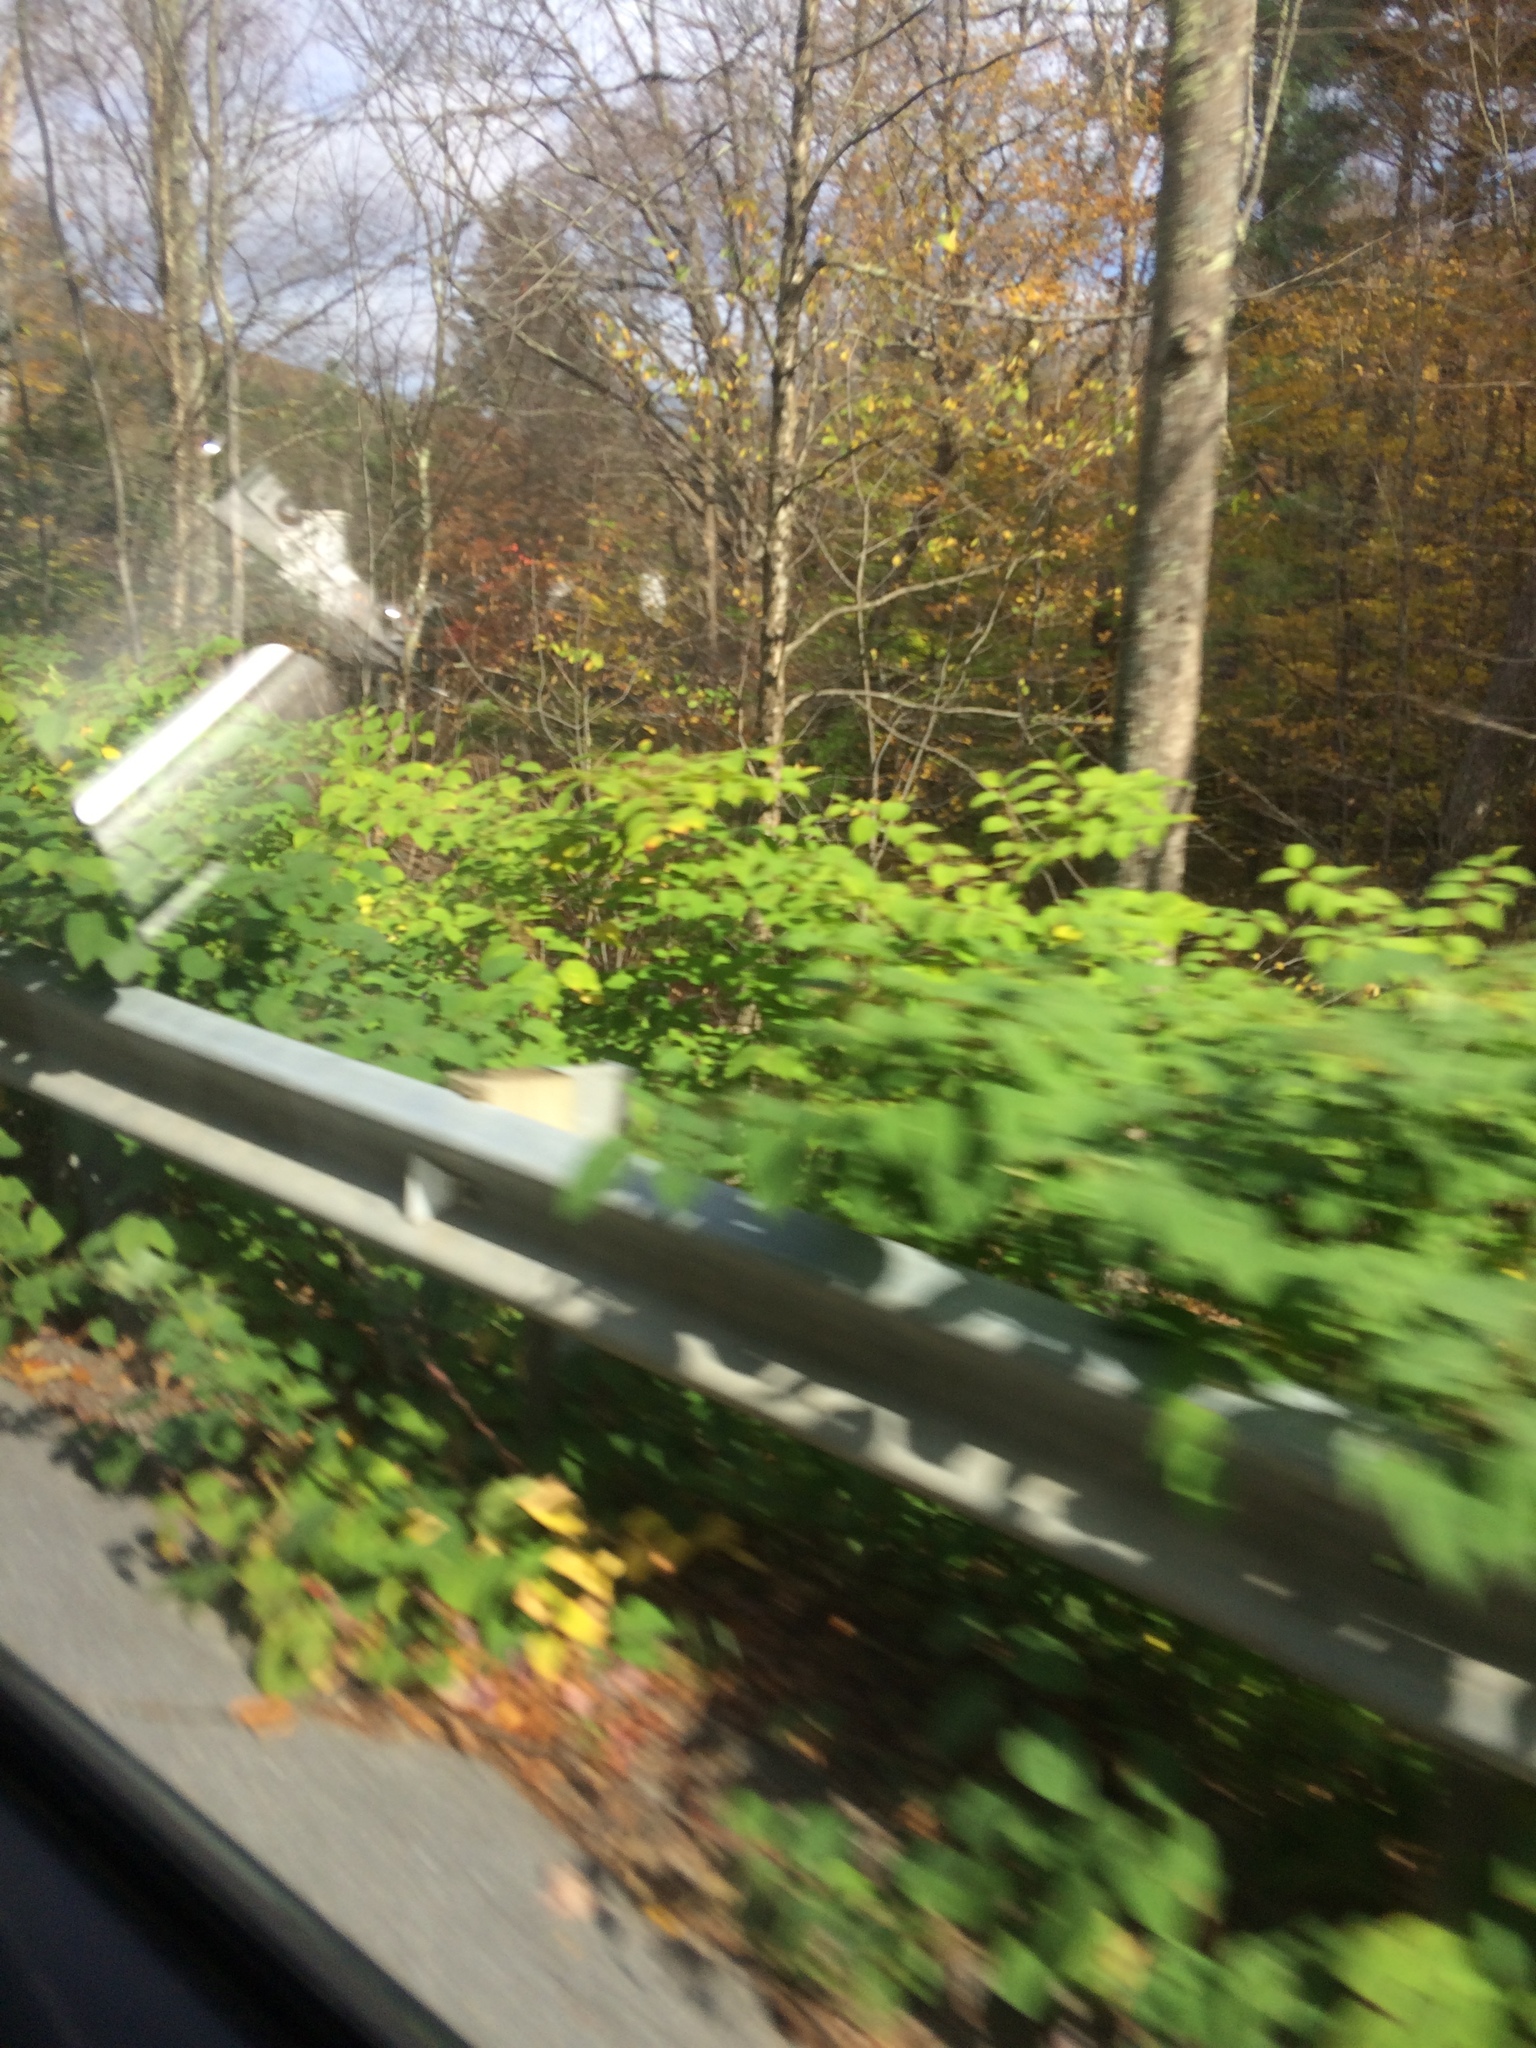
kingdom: Plantae
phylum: Tracheophyta
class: Magnoliopsida
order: Caryophyllales
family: Polygonaceae
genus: Reynoutria
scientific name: Reynoutria japonica
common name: Japanese knotweed
